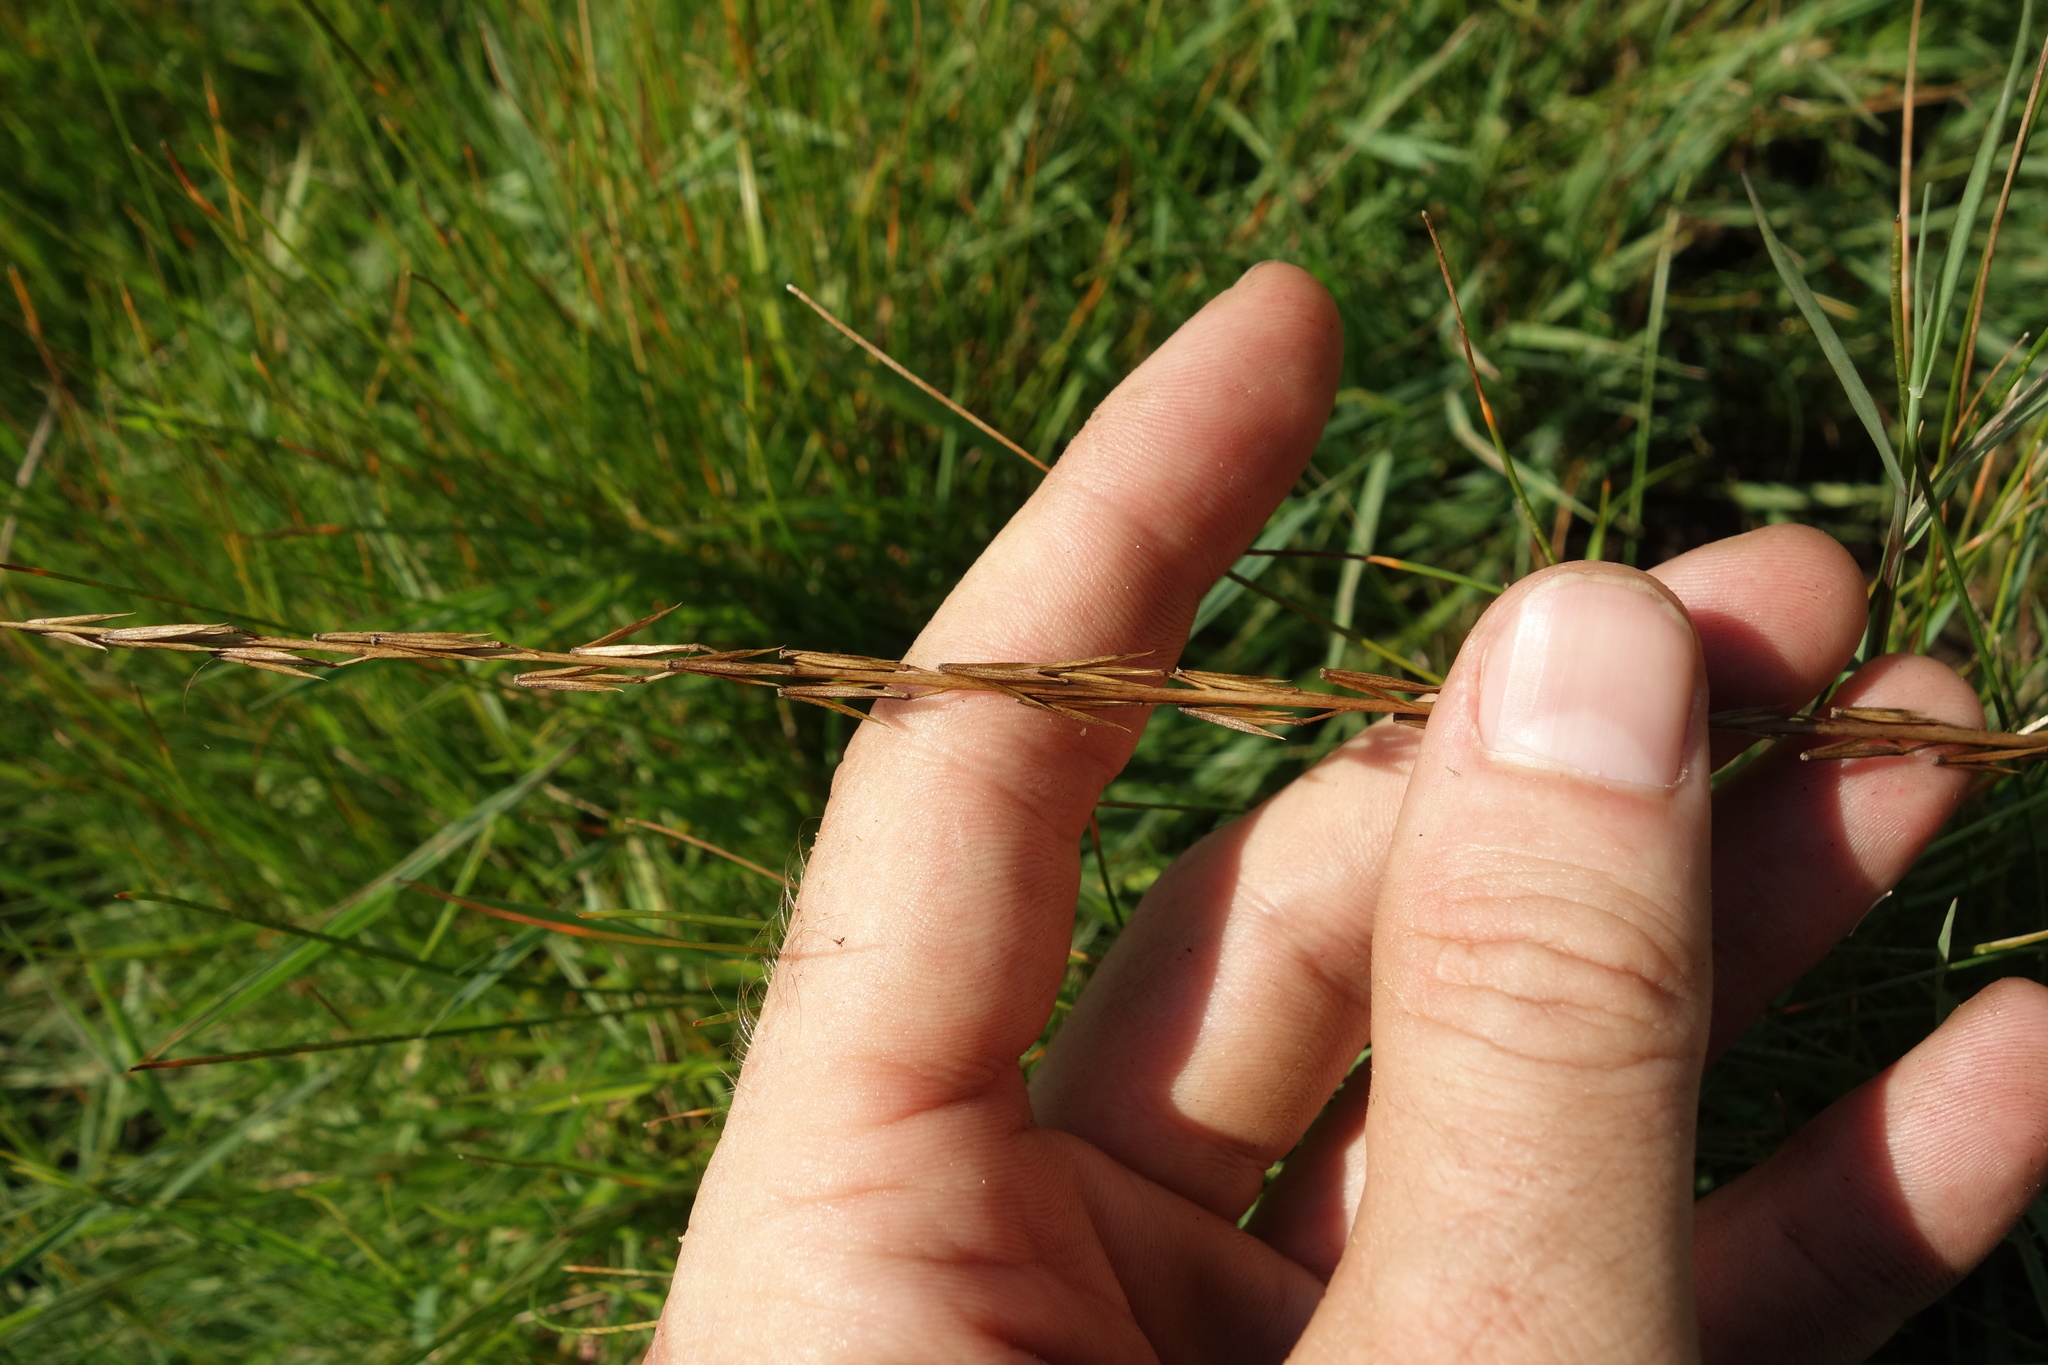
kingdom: Plantae
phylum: Tracheophyta
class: Liliopsida
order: Alismatales
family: Juncaginaceae
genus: Triglochin
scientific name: Triglochin palustris
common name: Marsh arrowgrass
